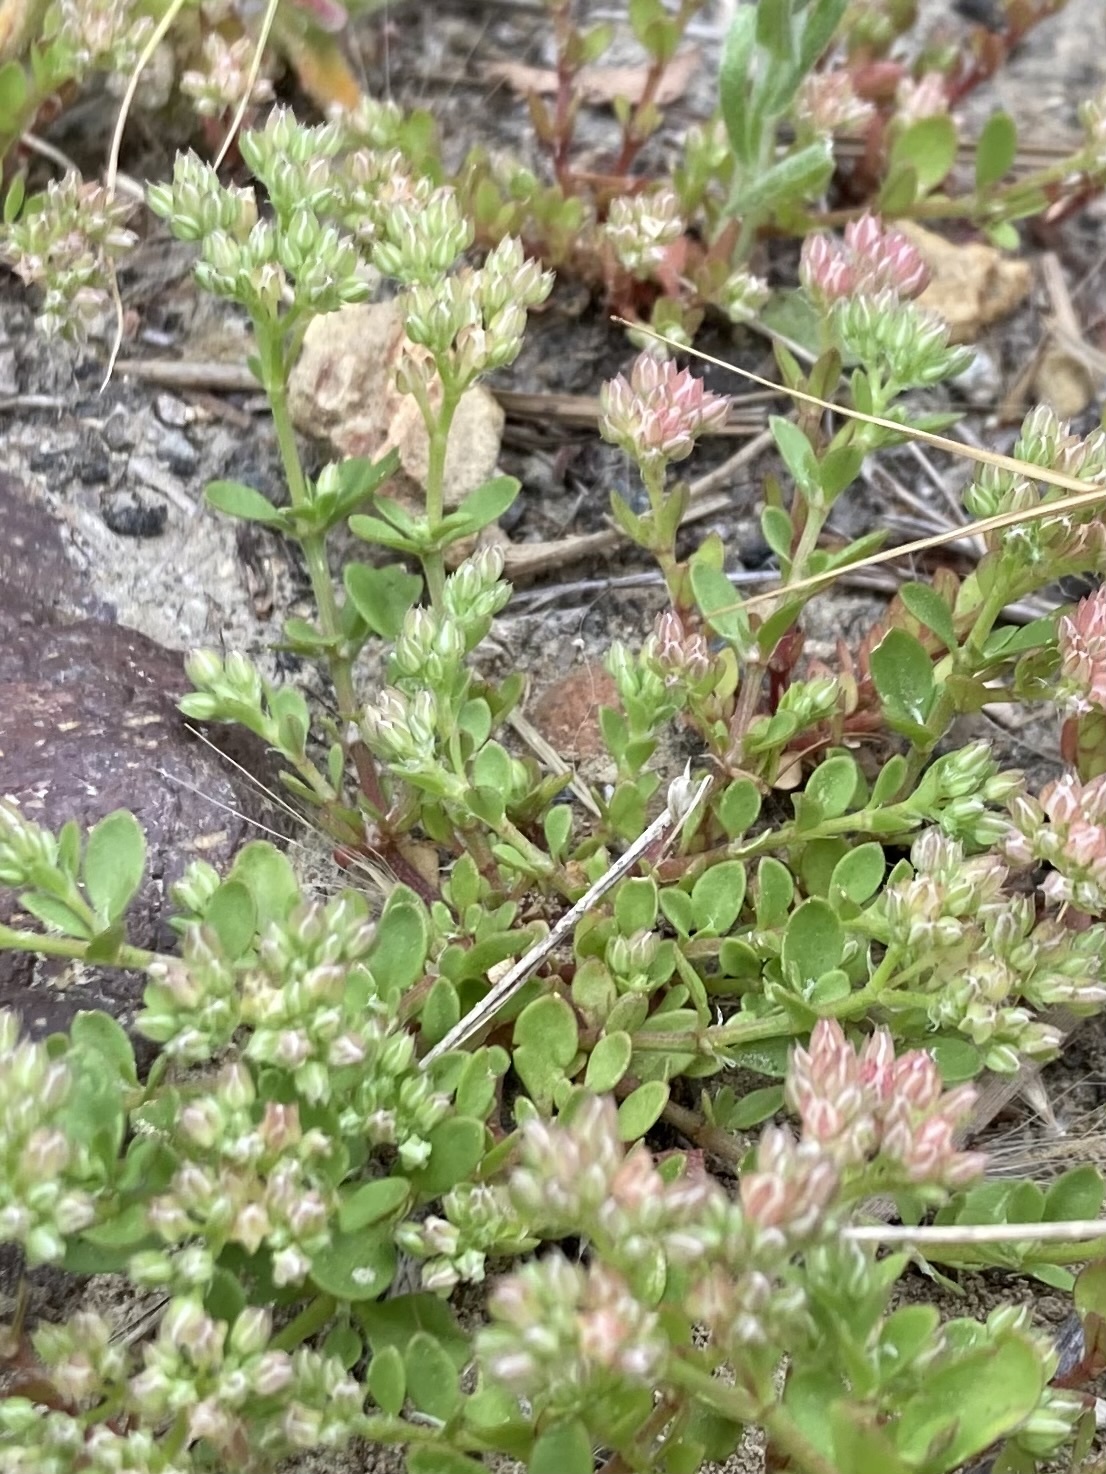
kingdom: Plantae
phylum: Tracheophyta
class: Magnoliopsida
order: Caryophyllales
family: Caryophyllaceae
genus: Polycarpon
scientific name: Polycarpon tetraphyllum
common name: Four-leaved all-seed
